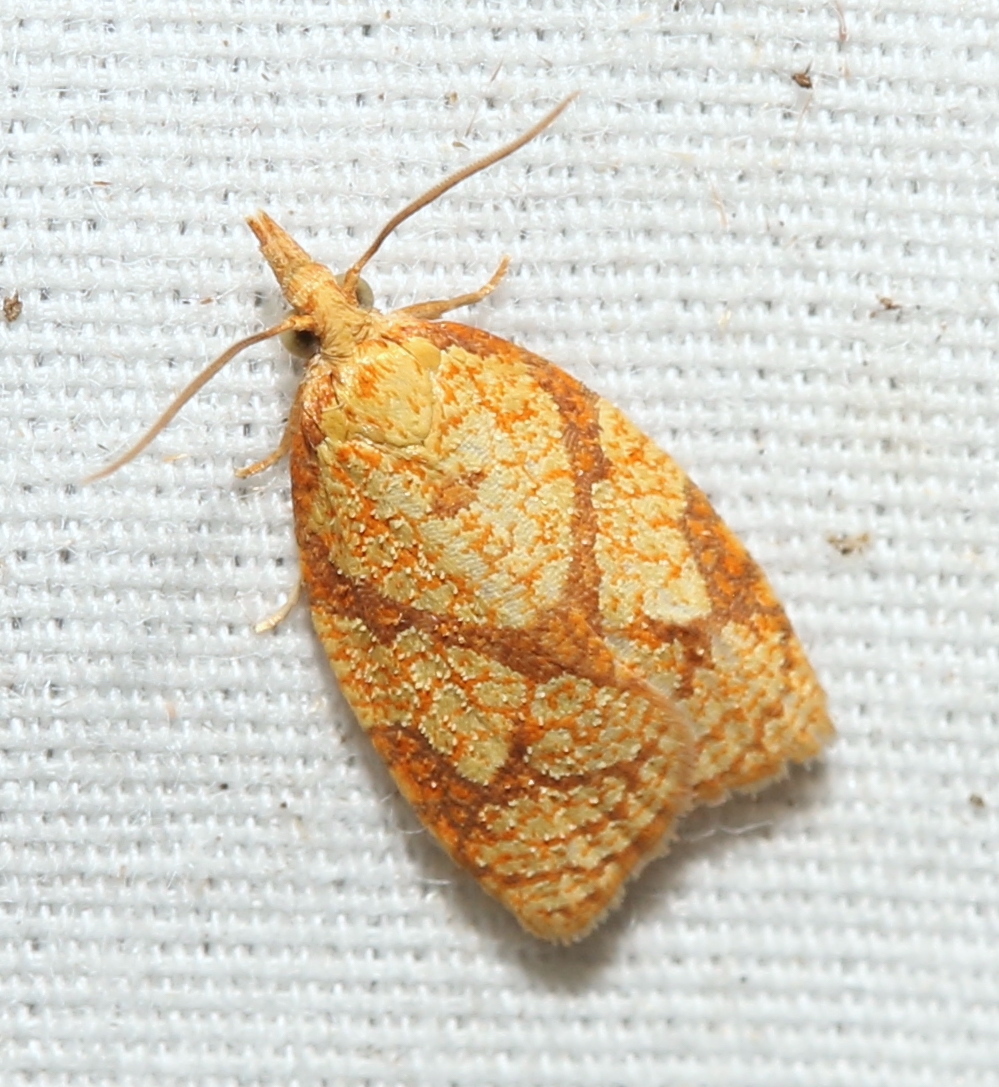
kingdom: Animalia
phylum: Arthropoda
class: Insecta
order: Lepidoptera
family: Tortricidae
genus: Cenopis
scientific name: Cenopis reticulatana
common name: Reticulated fruitworm moth
